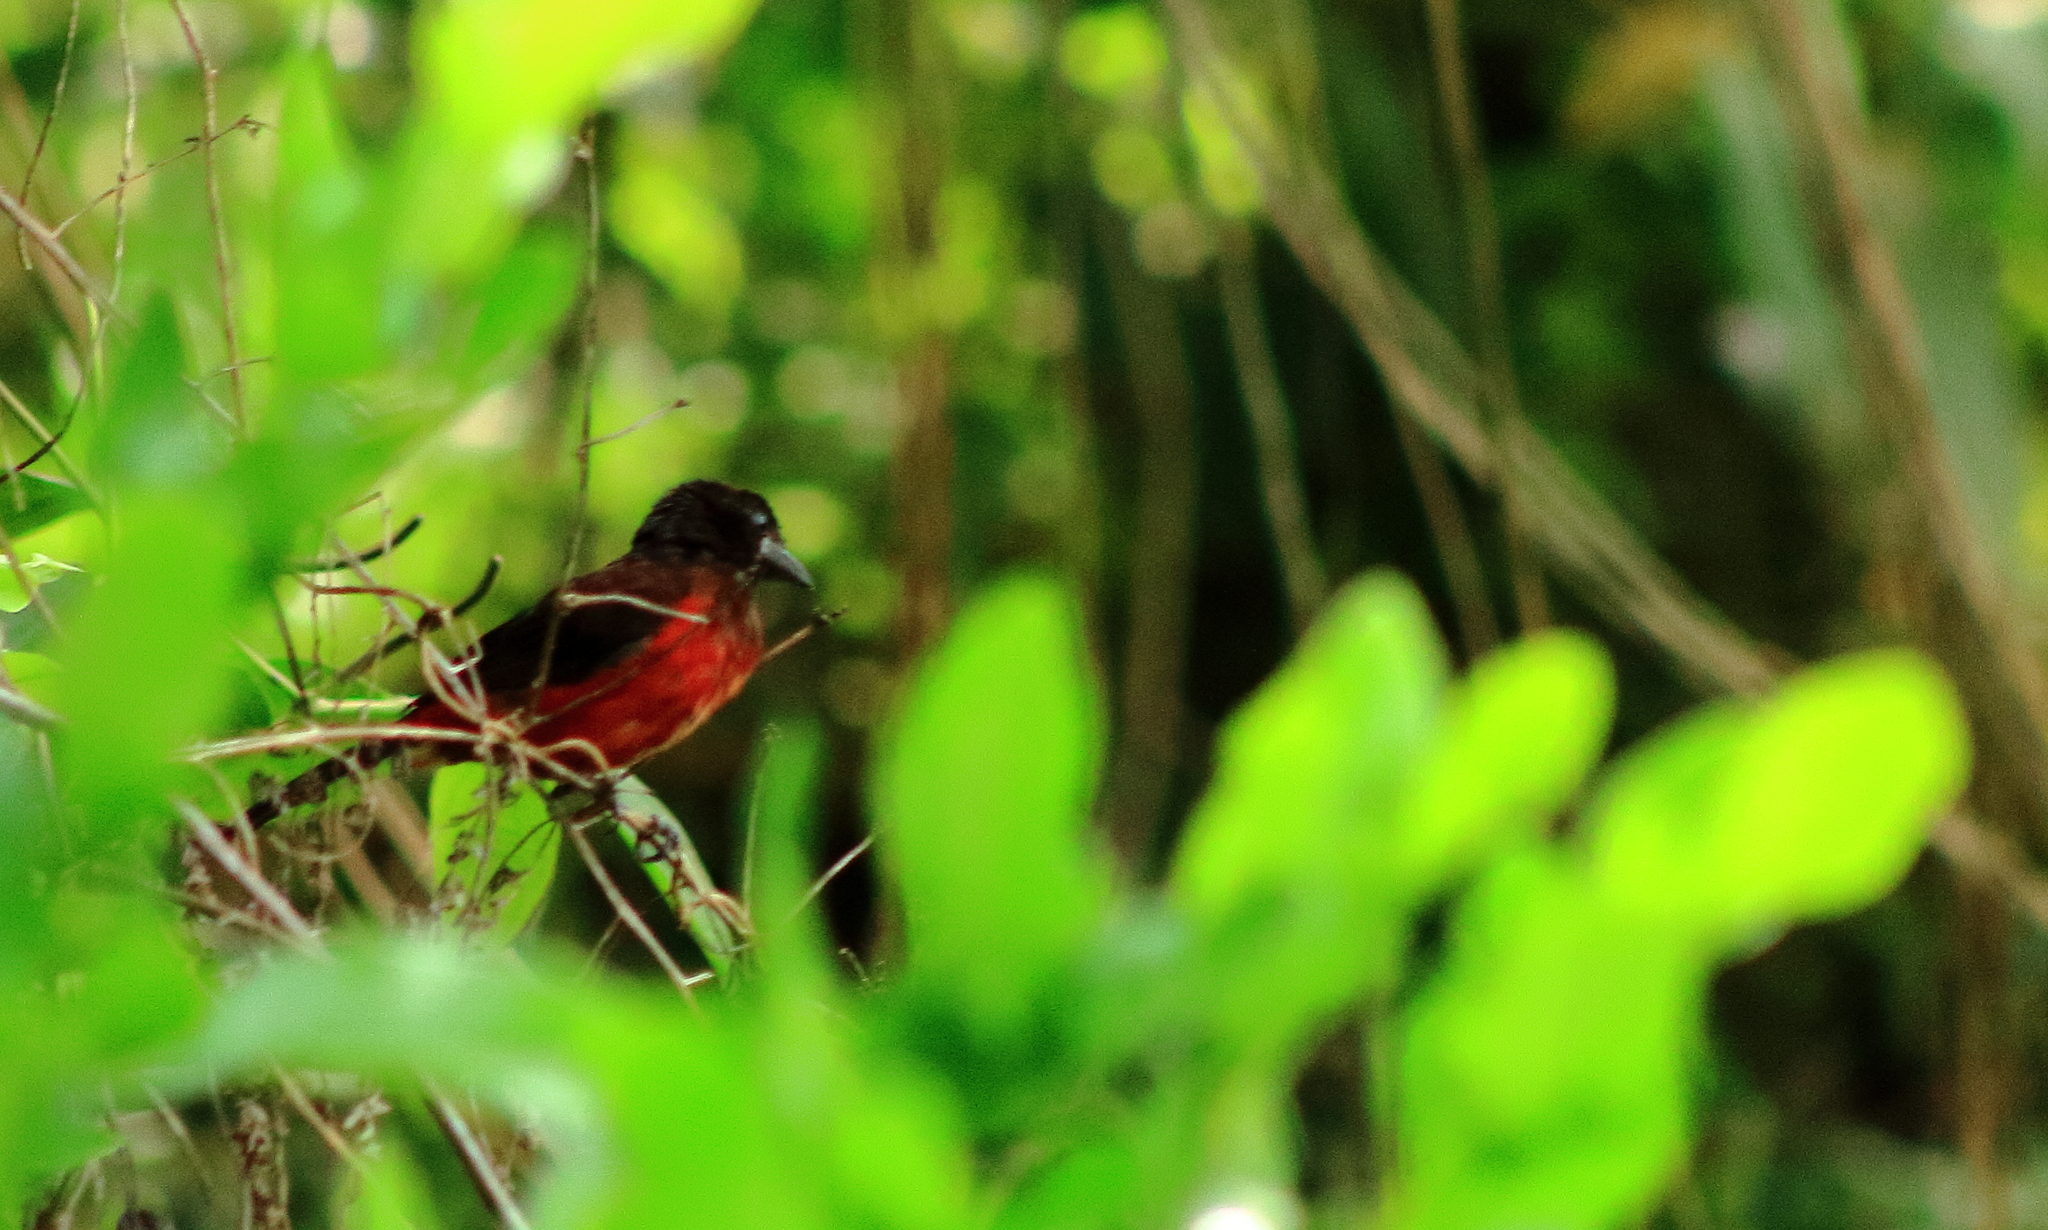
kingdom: Animalia
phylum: Chordata
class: Aves
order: Passeriformes
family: Thraupidae
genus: Ramphocelus
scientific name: Ramphocelus dimidiatus
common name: Crimson-backed tanager
